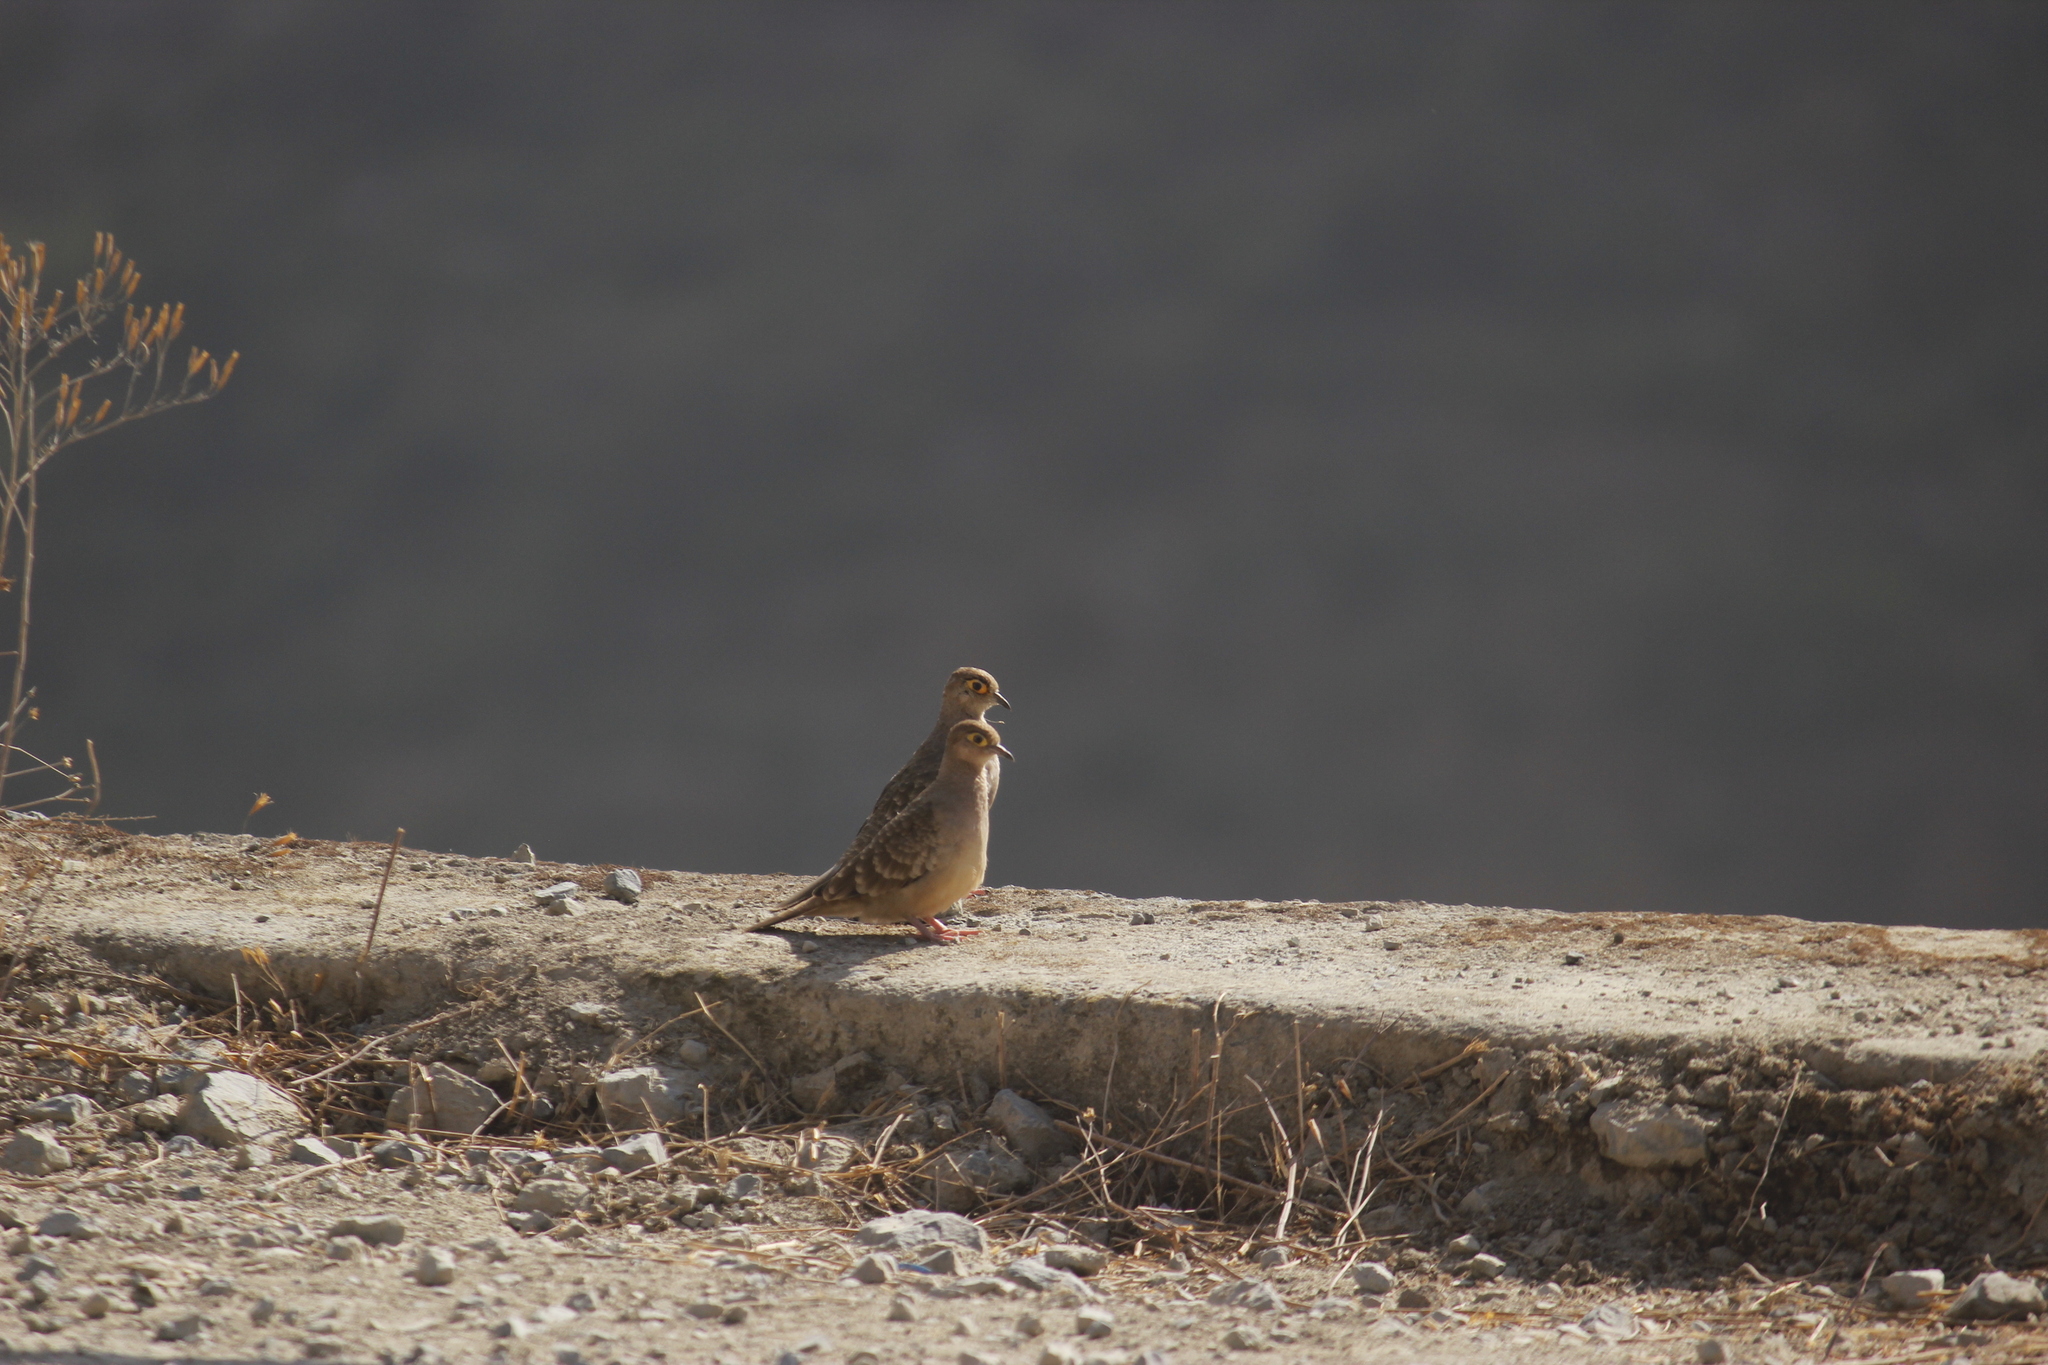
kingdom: Animalia
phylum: Chordata
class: Aves
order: Columbiformes
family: Columbidae
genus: Metriopelia
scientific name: Metriopelia ceciliae
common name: Bare-faced ground dove
